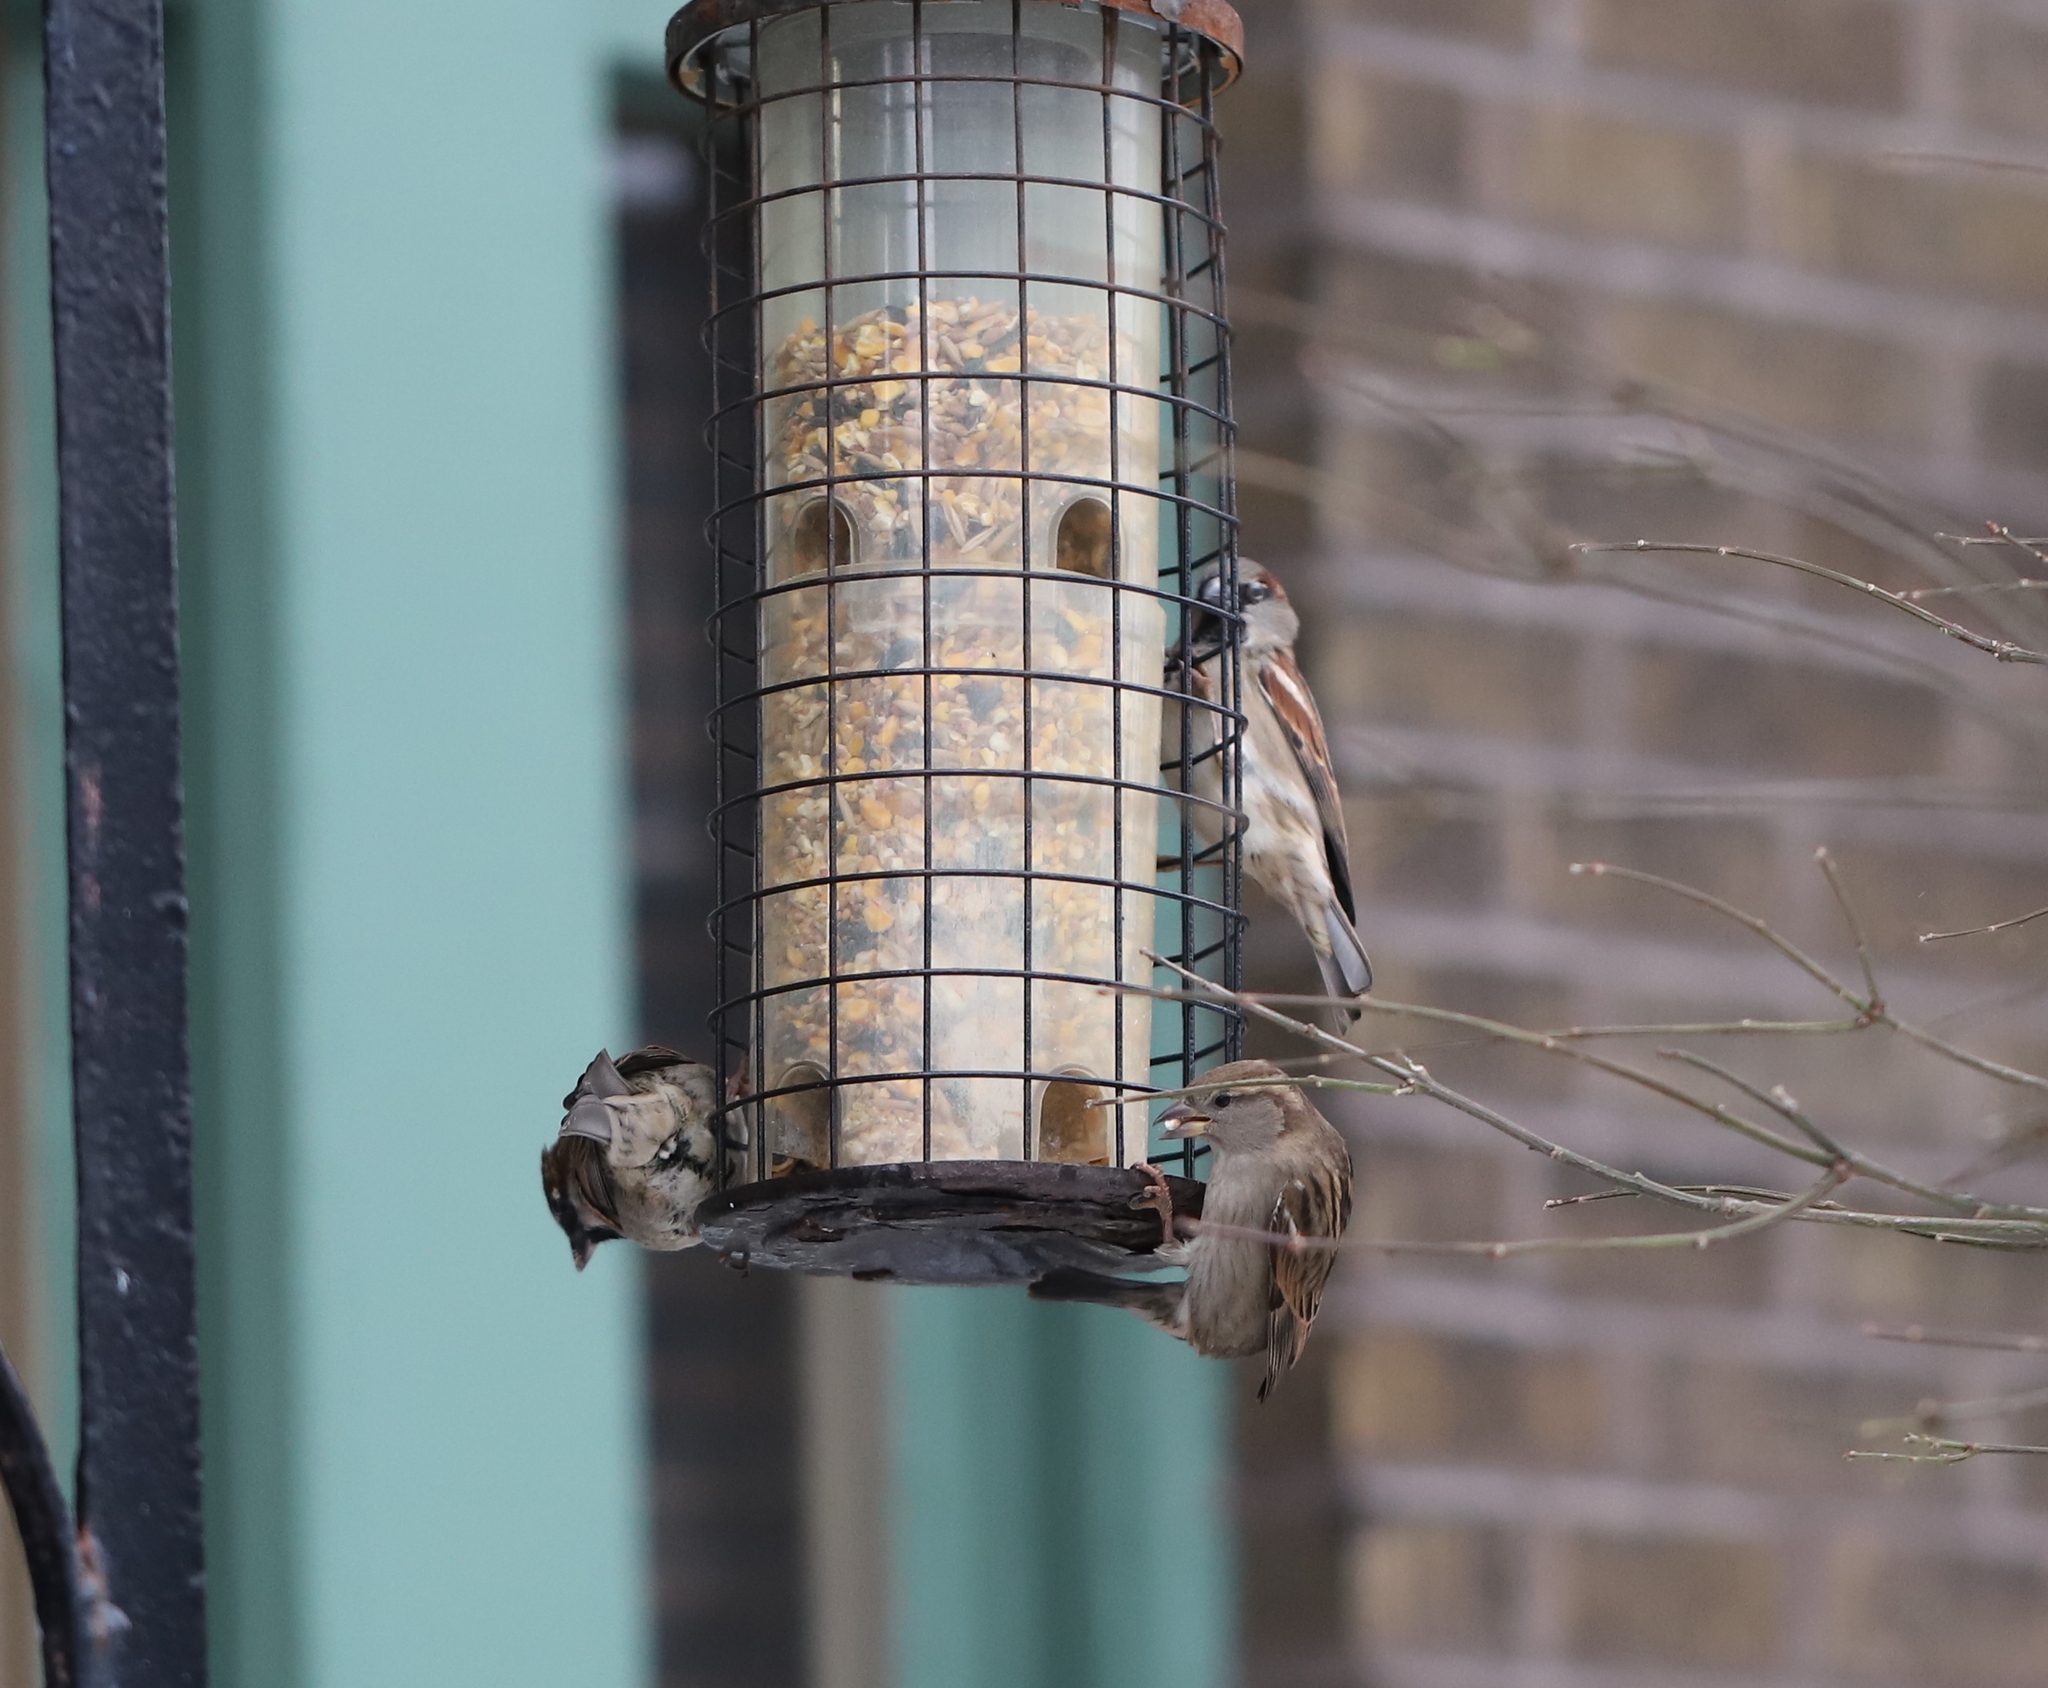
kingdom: Animalia
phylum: Chordata
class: Aves
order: Passeriformes
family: Passeridae
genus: Passer
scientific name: Passer domesticus
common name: House sparrow
